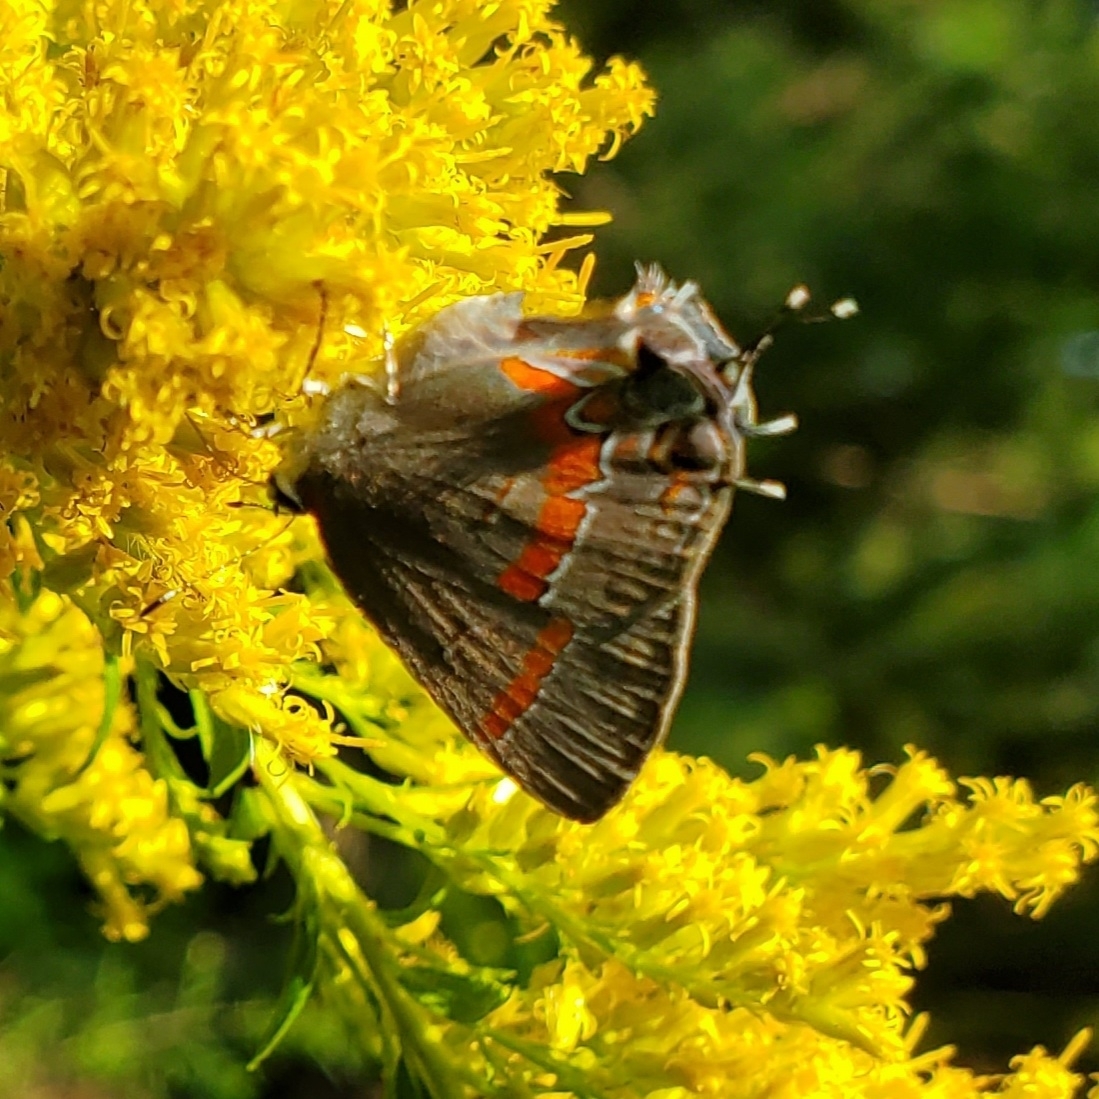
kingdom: Animalia
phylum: Arthropoda
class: Insecta
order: Lepidoptera
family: Lycaenidae
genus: Calycopis
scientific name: Calycopis cecrops
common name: Red-banded hairstreak
